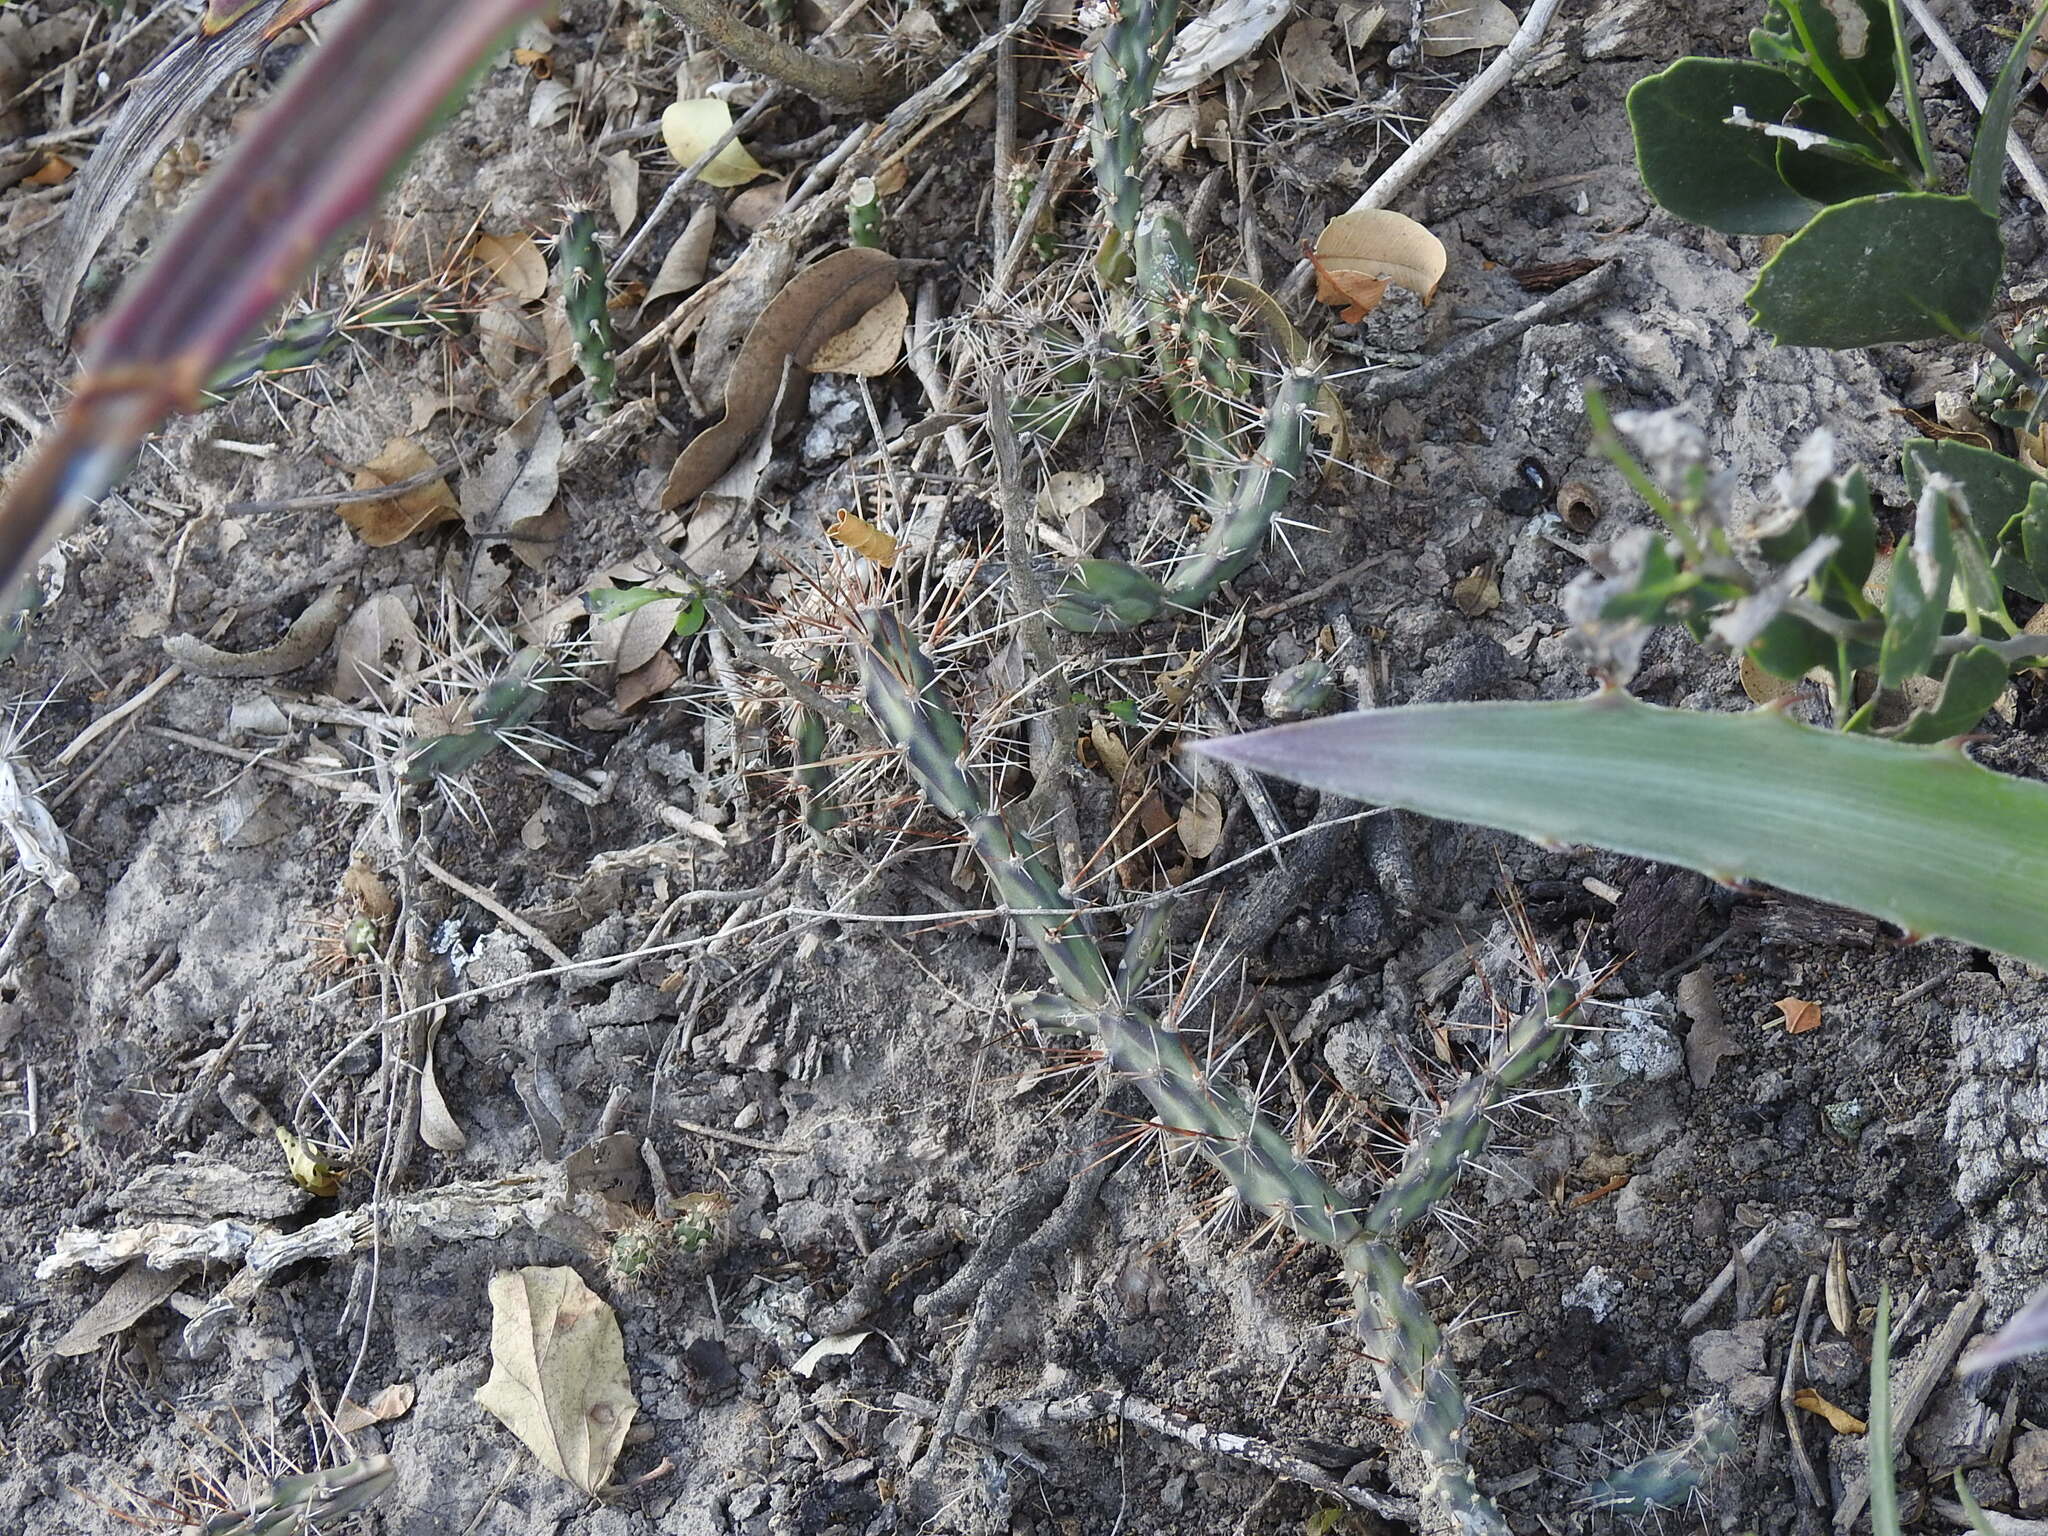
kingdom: Plantae
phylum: Tracheophyta
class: Magnoliopsida
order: Caryophyllales
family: Cactaceae
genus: Opuntia
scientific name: Opuntia retrorsa
